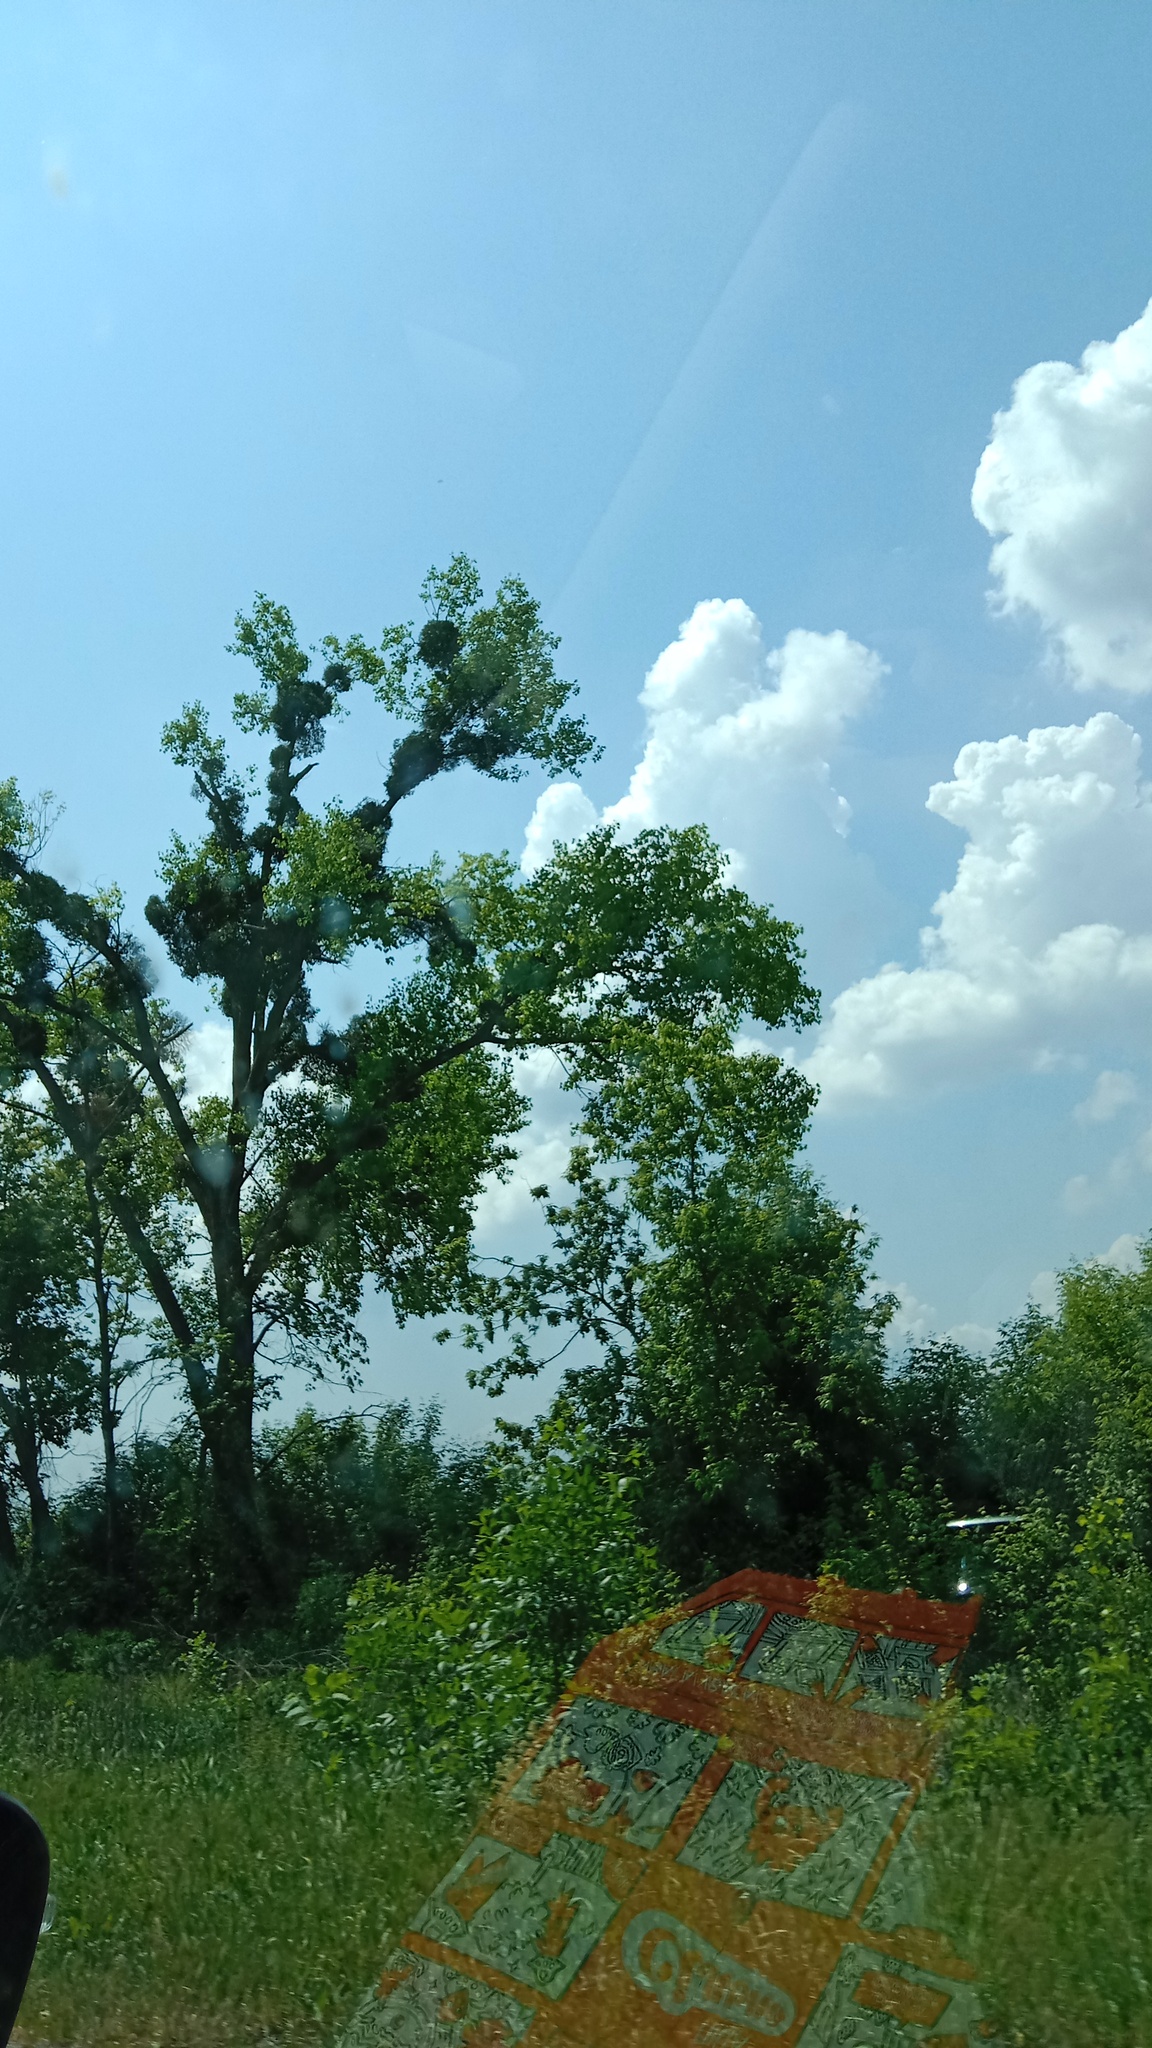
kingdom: Plantae
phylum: Tracheophyta
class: Magnoliopsida
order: Santalales
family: Viscaceae
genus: Viscum
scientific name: Viscum album
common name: Mistletoe
